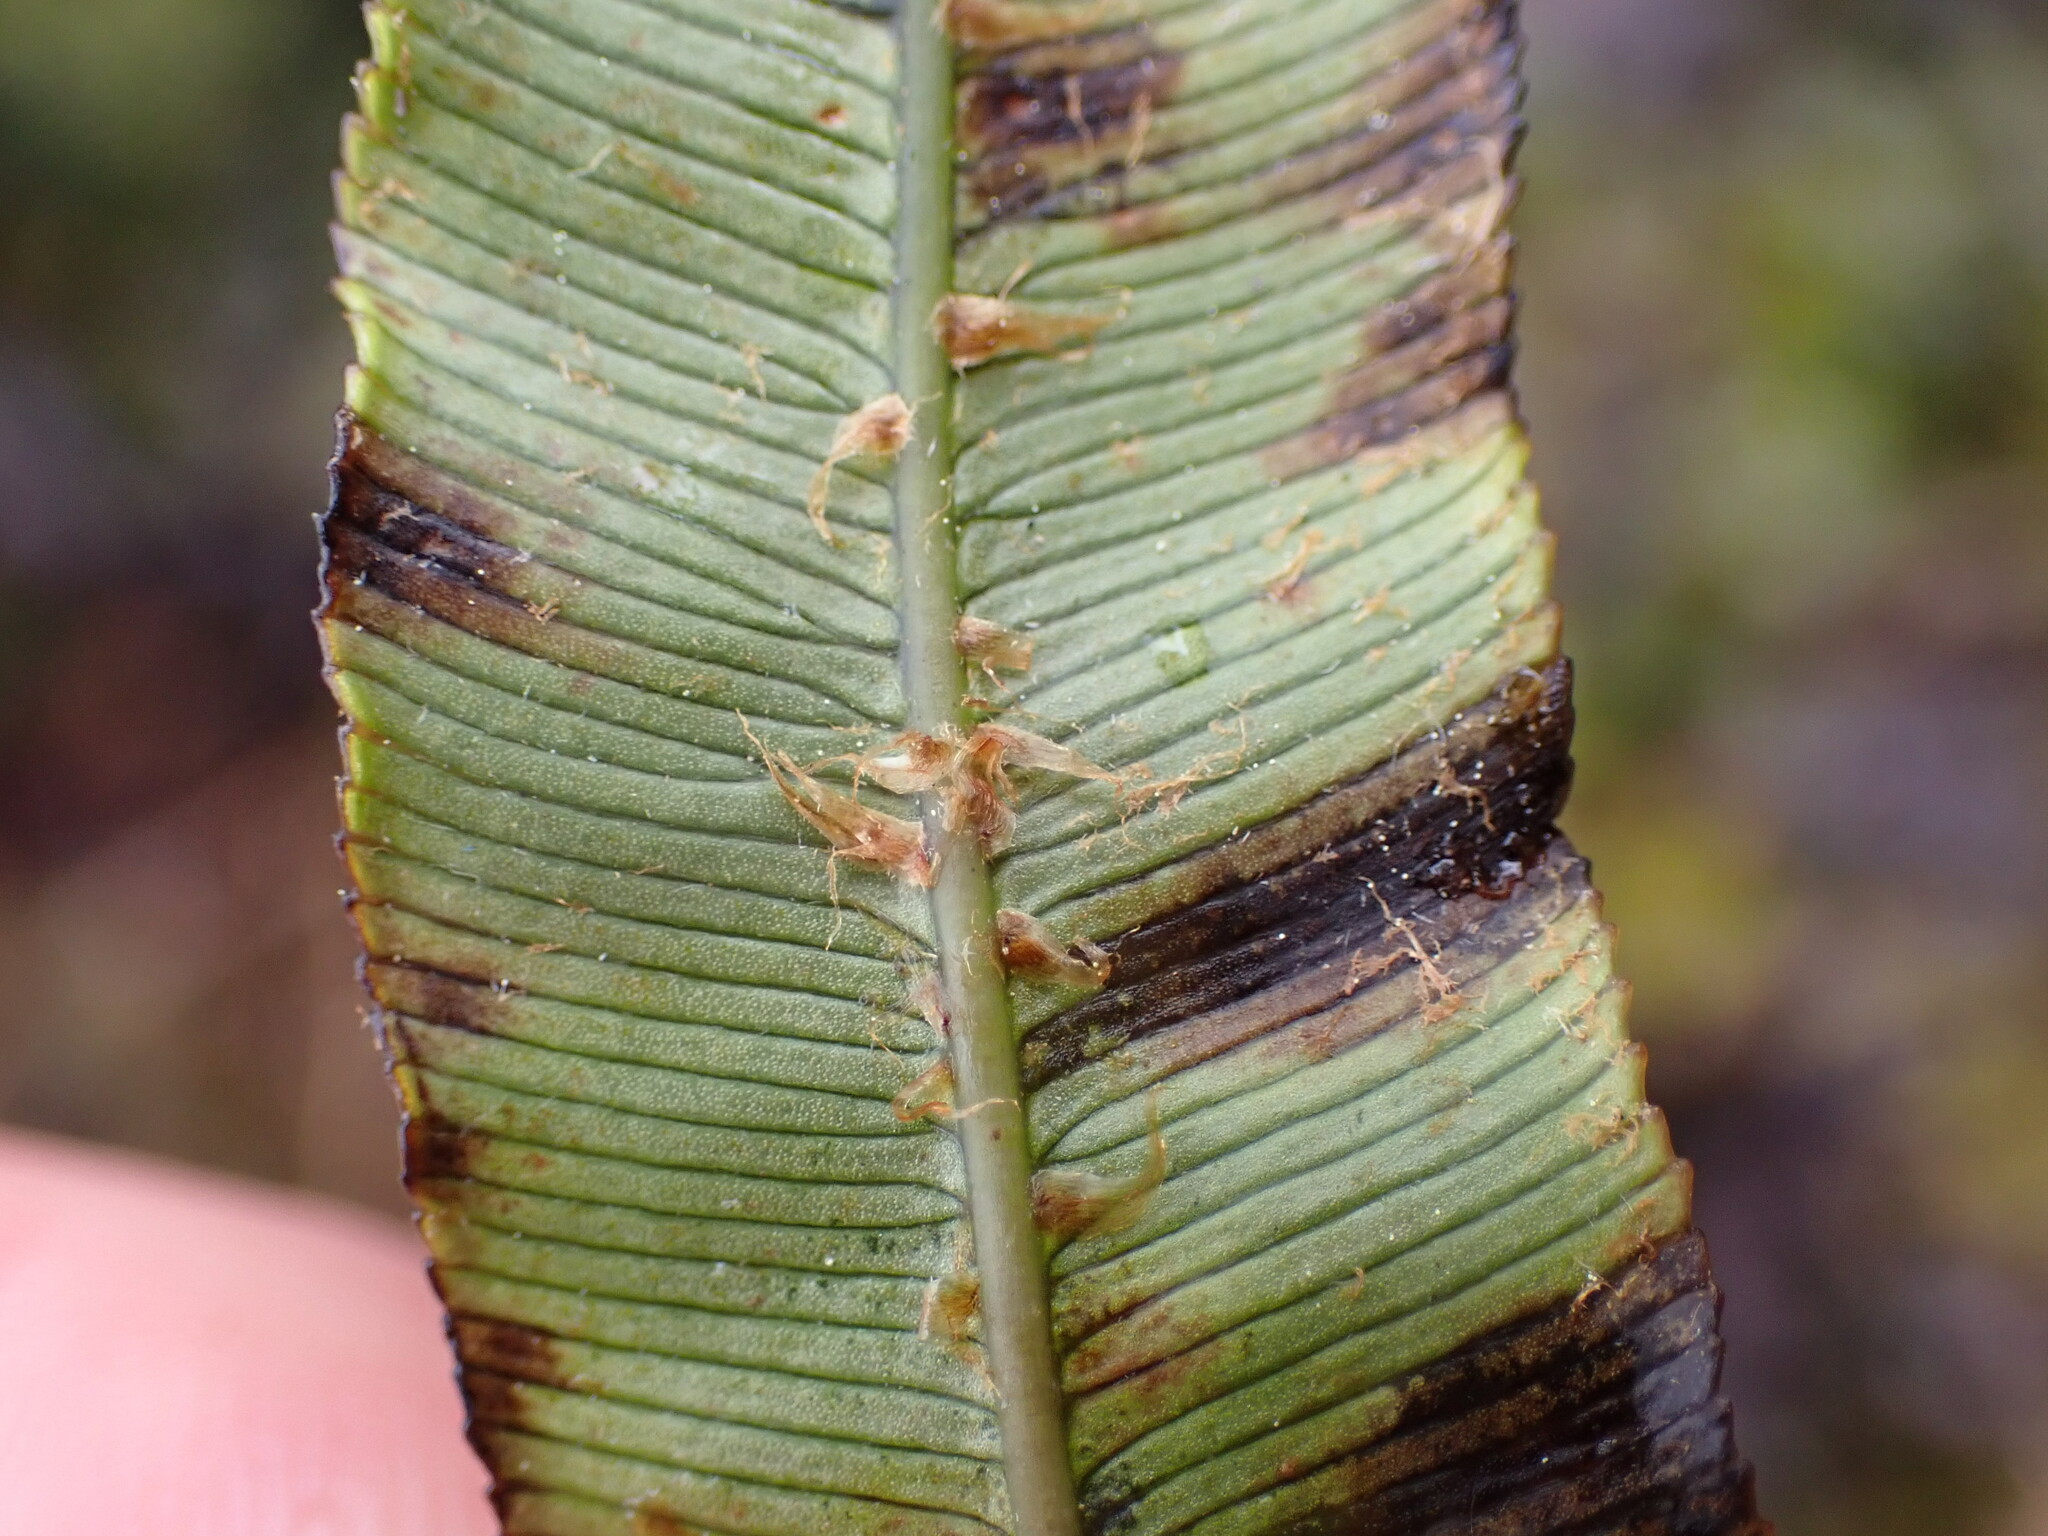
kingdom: Plantae
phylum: Tracheophyta
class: Polypodiopsida
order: Polypodiales
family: Blechnaceae
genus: Parablechnum
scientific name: Parablechnum montanum
